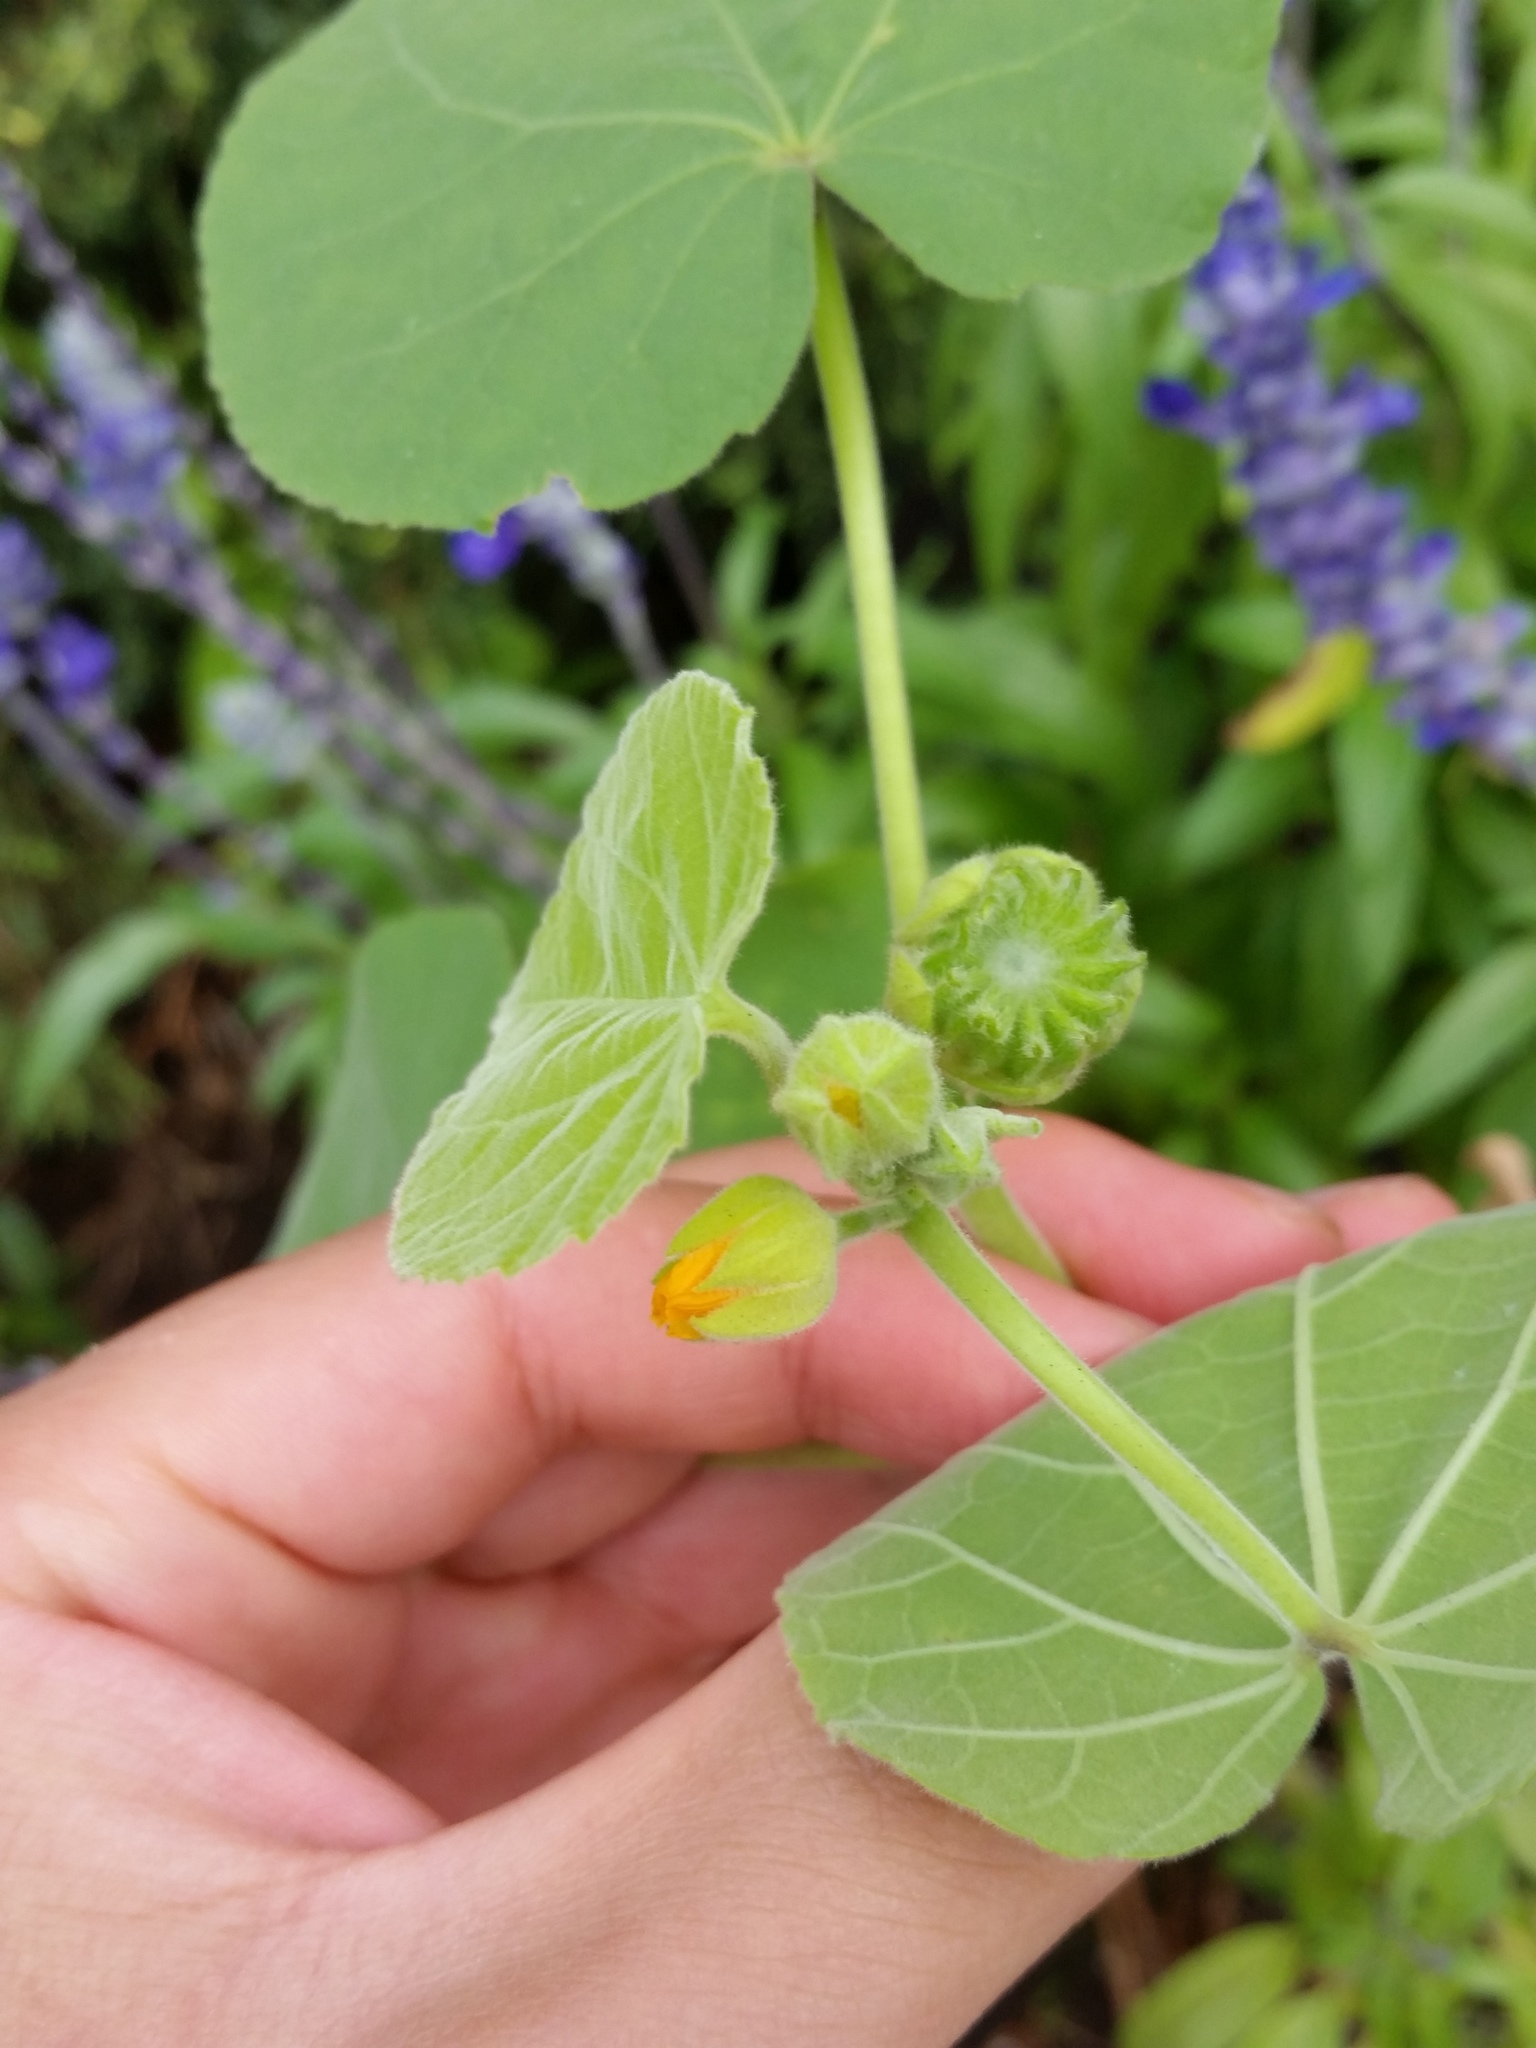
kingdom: Plantae
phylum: Tracheophyta
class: Magnoliopsida
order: Malvales
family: Malvaceae
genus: Abutilon
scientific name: Abutilon theophrasti
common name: Velvetleaf
